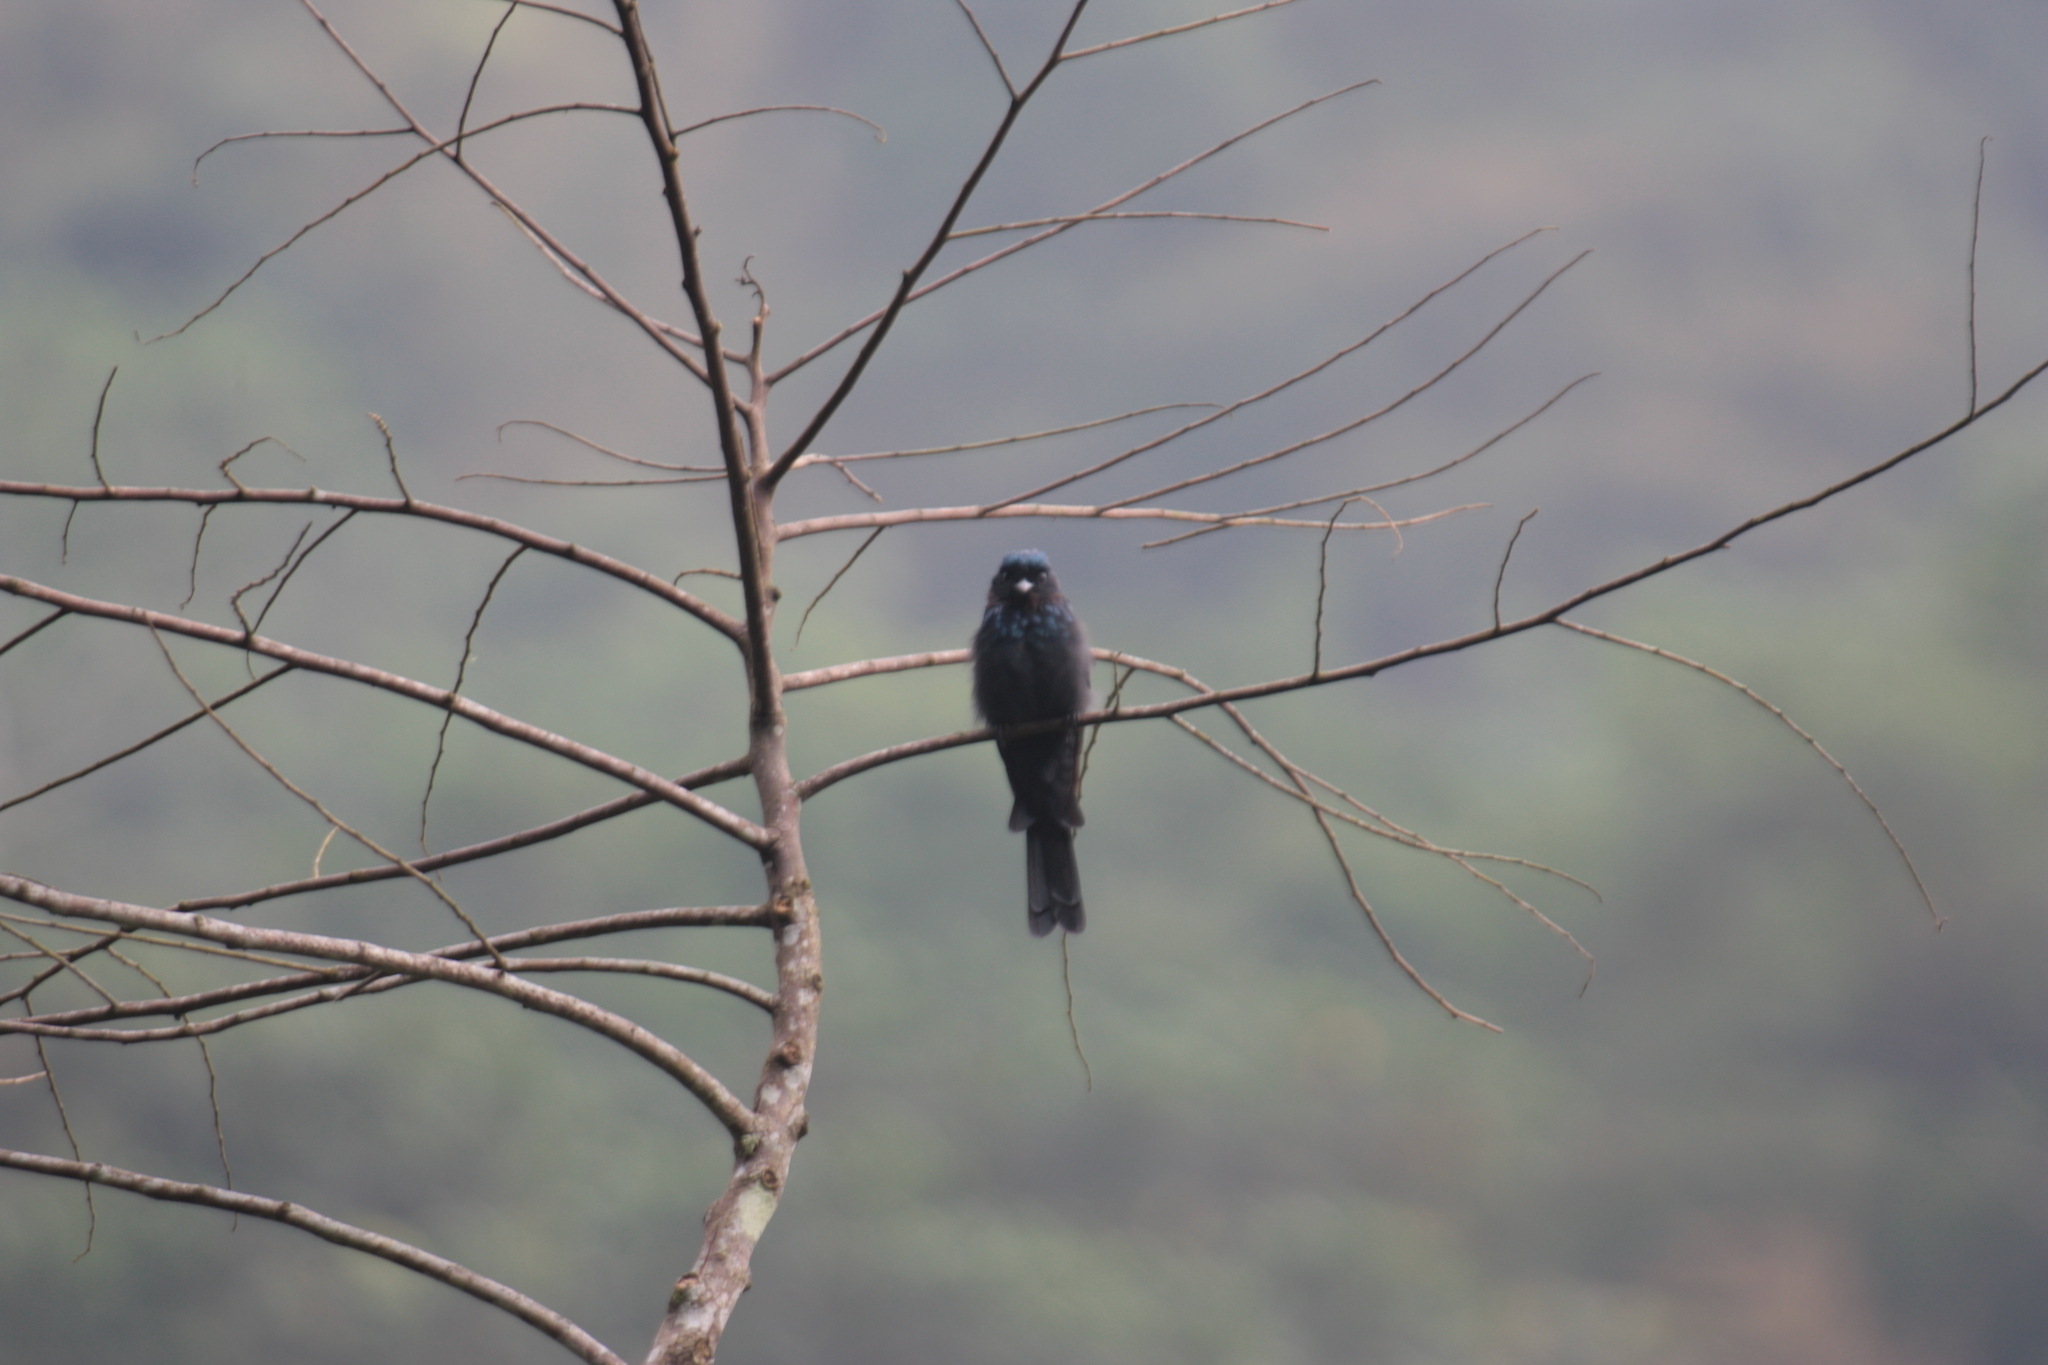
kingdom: Animalia
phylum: Chordata
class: Aves
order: Passeriformes
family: Dicruridae
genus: Dicrurus
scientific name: Dicrurus aeneus
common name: Bronzed drongo
